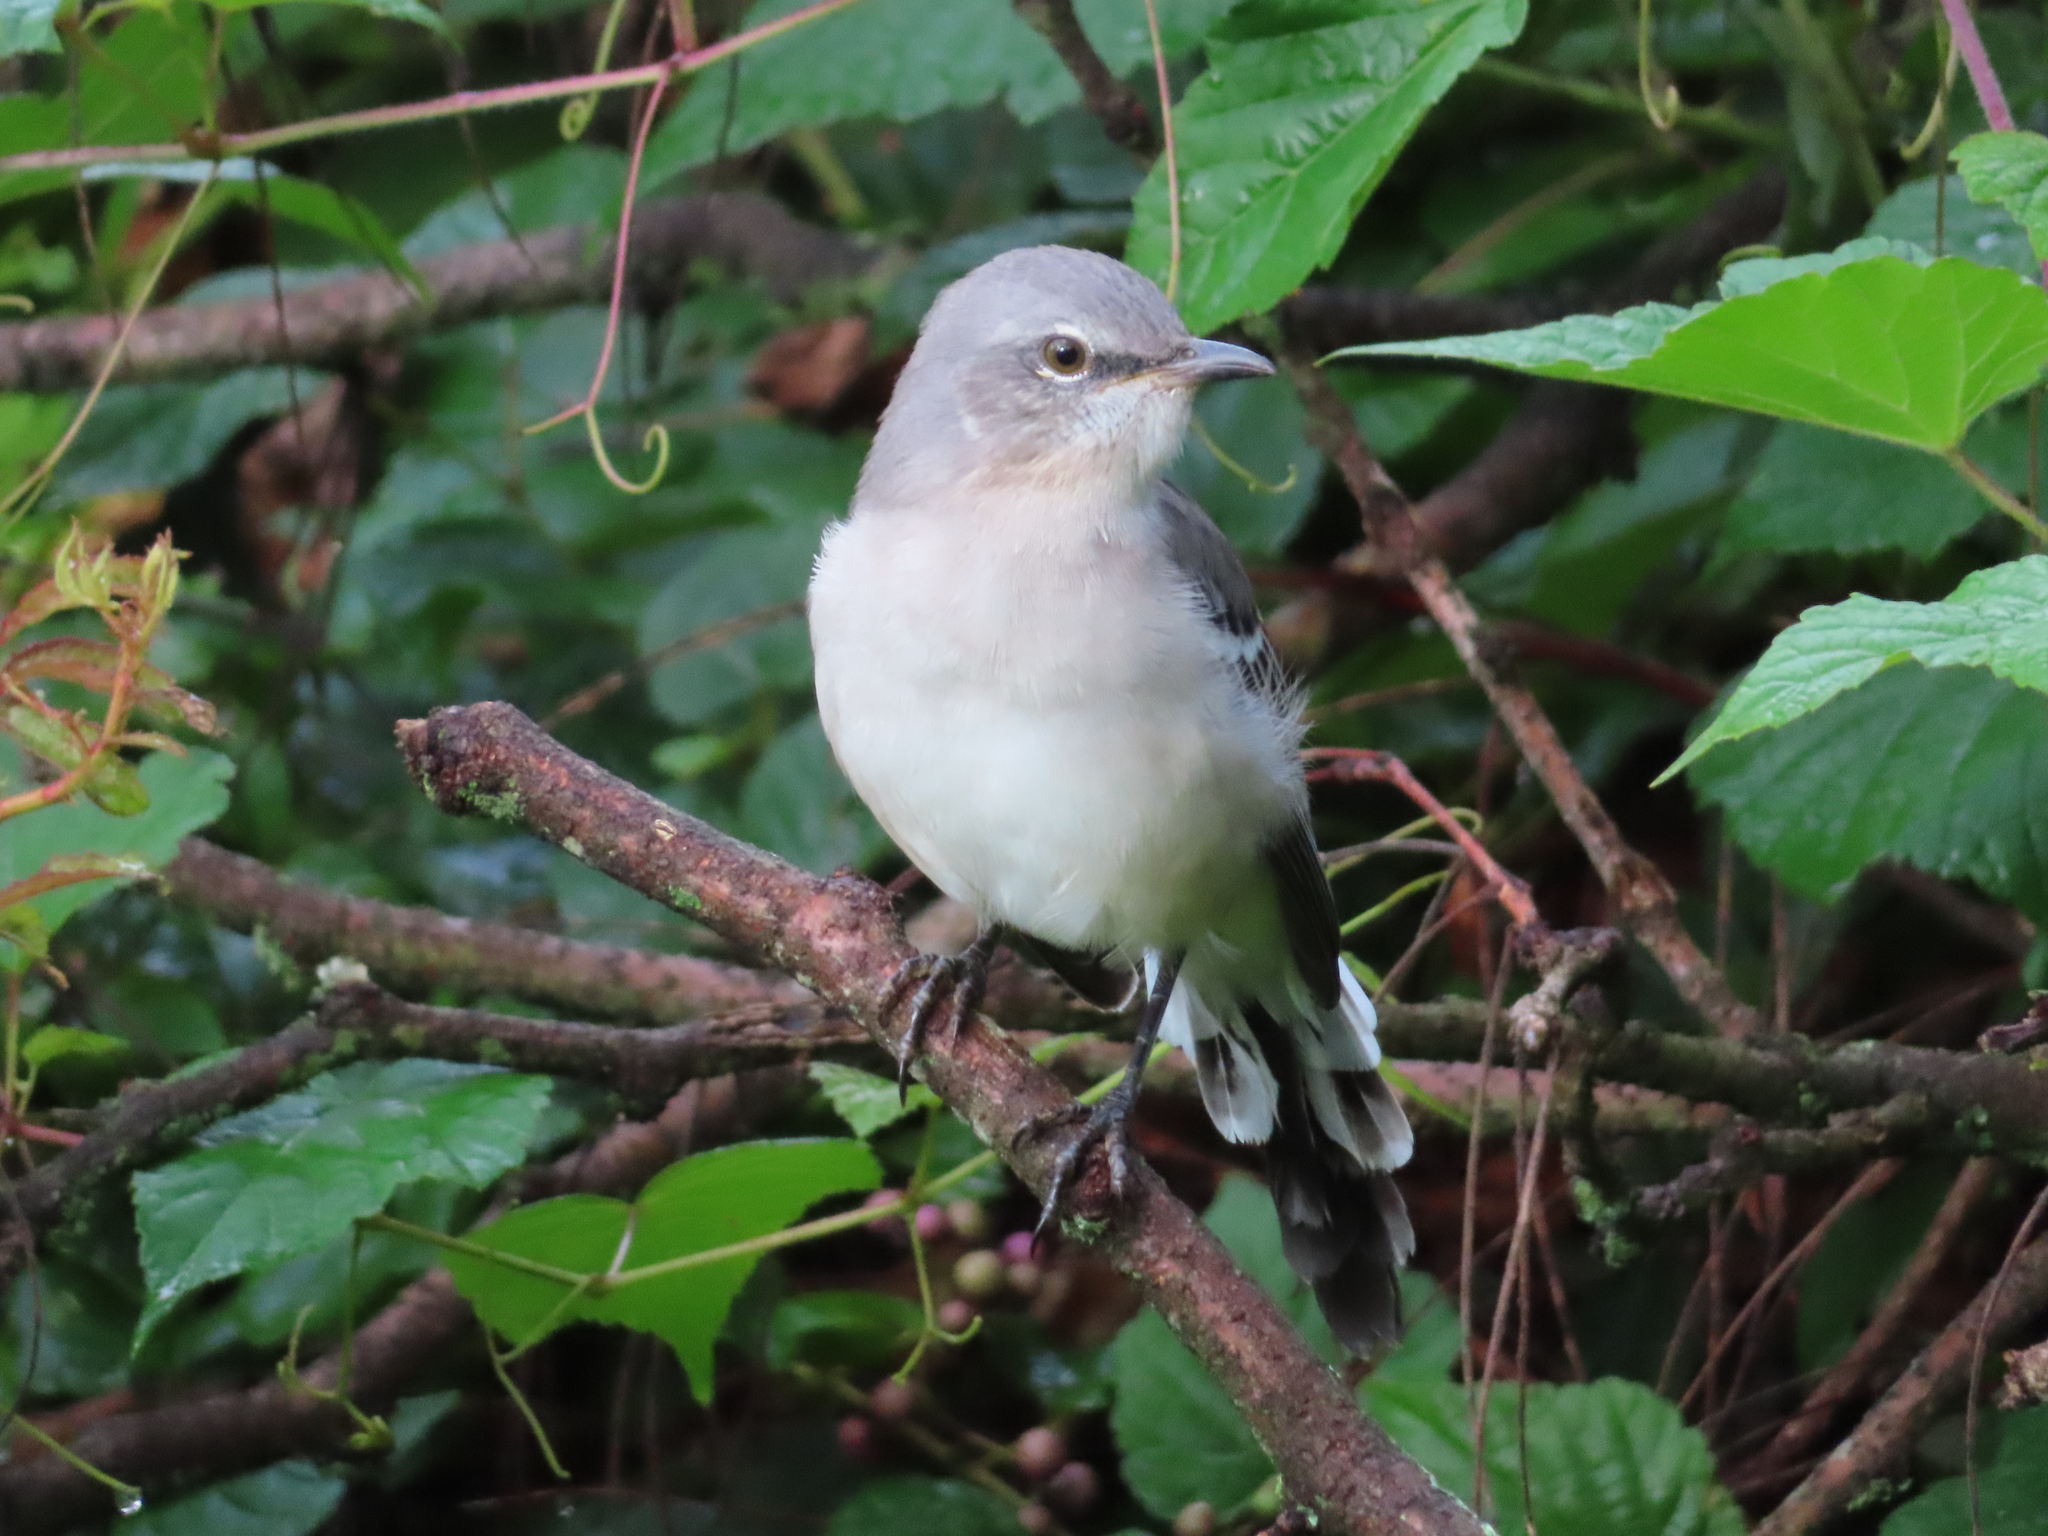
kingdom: Animalia
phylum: Chordata
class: Aves
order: Passeriformes
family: Mimidae
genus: Mimus
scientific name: Mimus polyglottos
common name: Northern mockingbird
